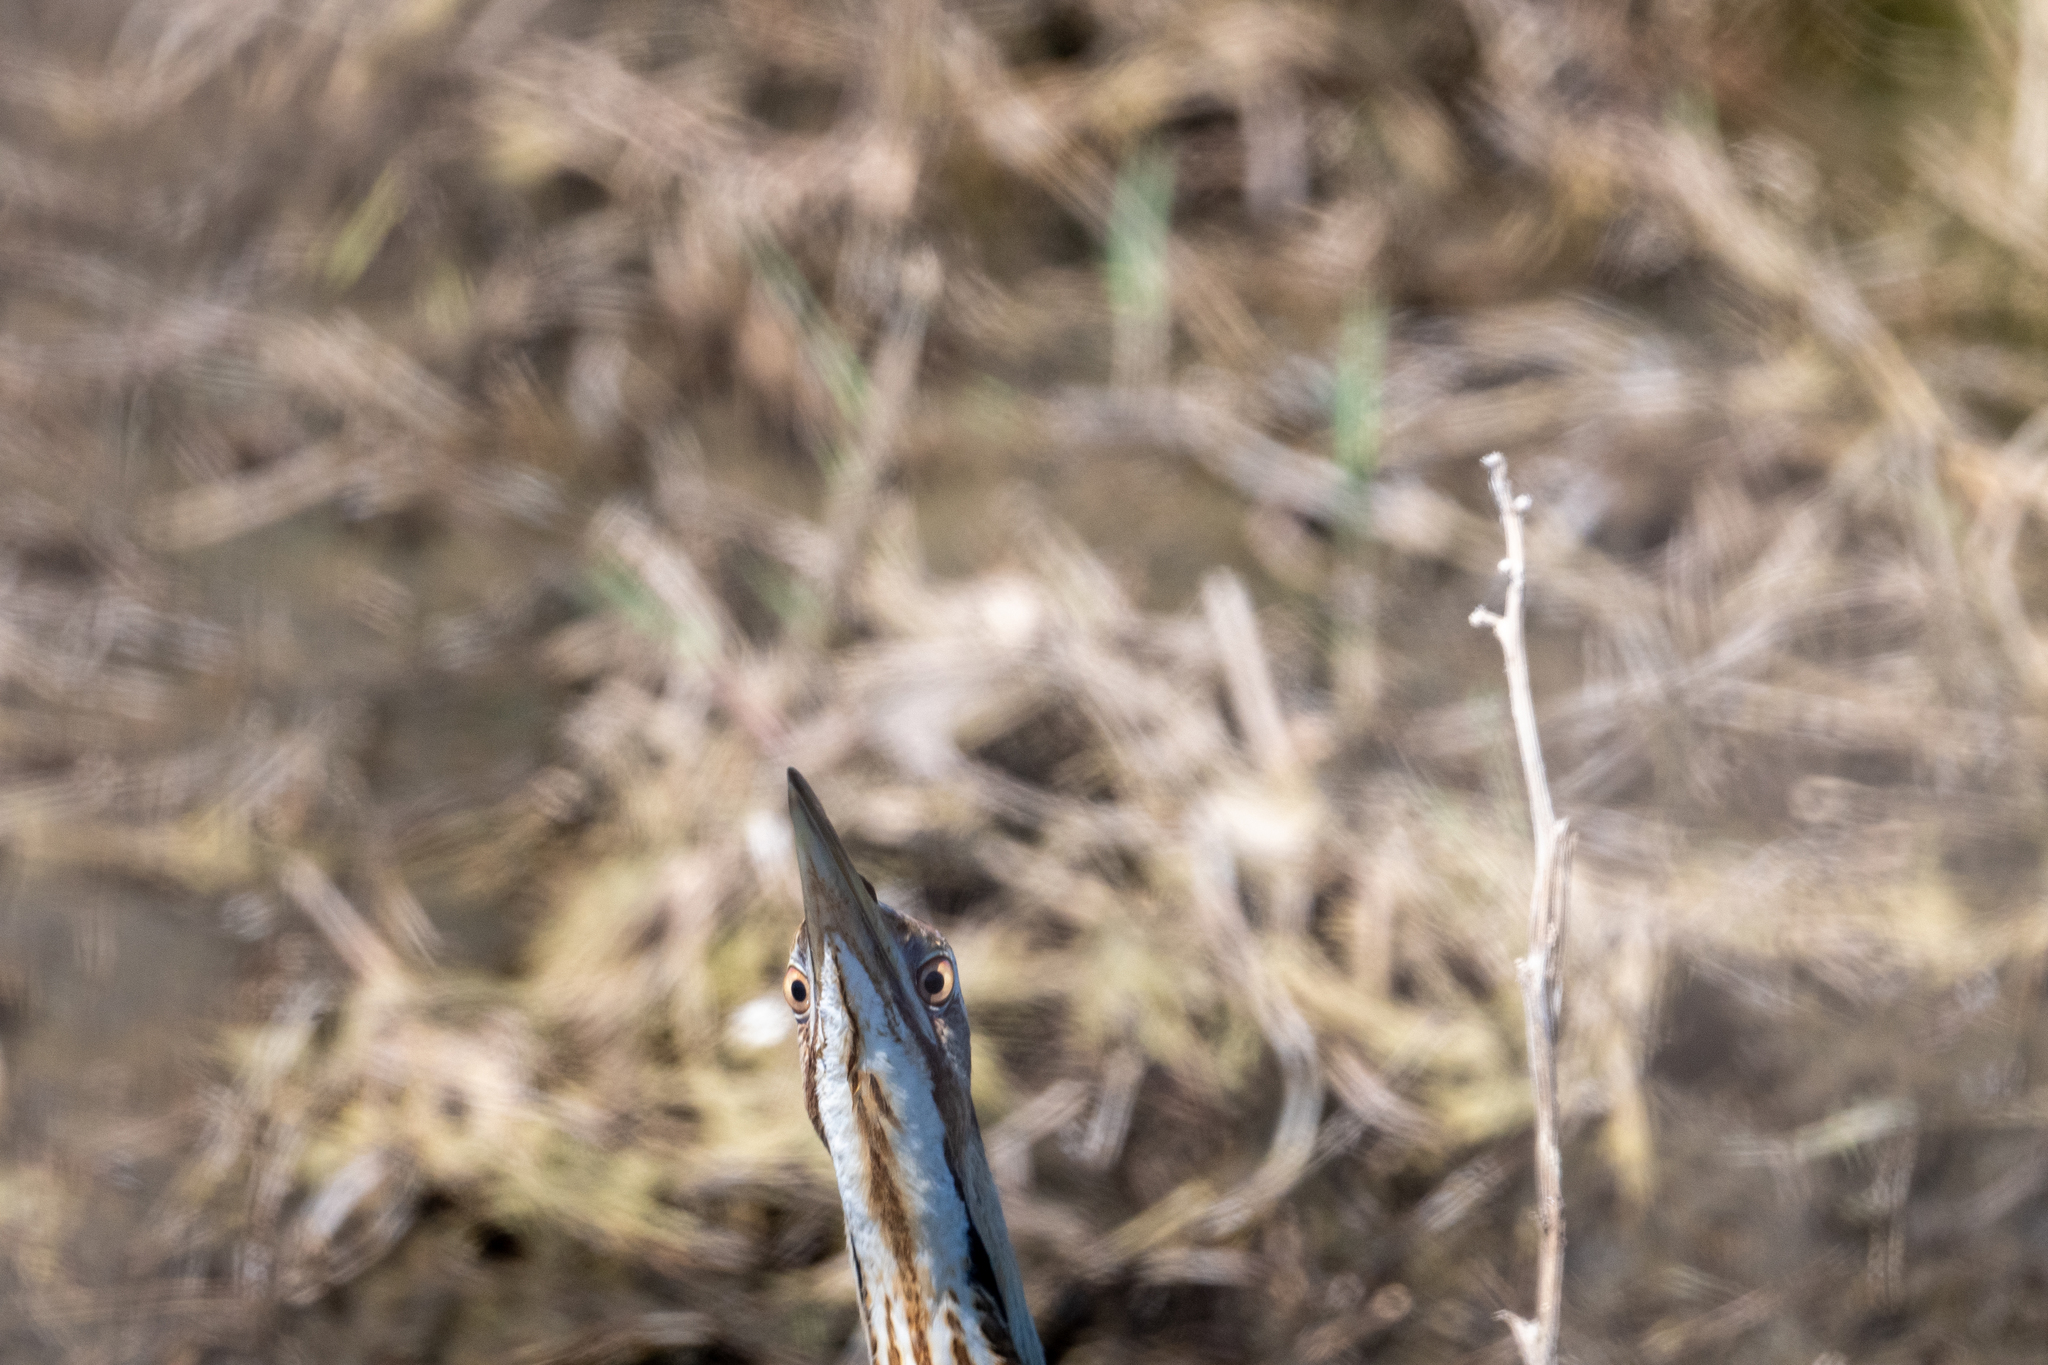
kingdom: Animalia
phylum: Chordata
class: Aves
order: Pelecaniformes
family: Ardeidae
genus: Botaurus
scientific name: Botaurus lentiginosus
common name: American bittern
